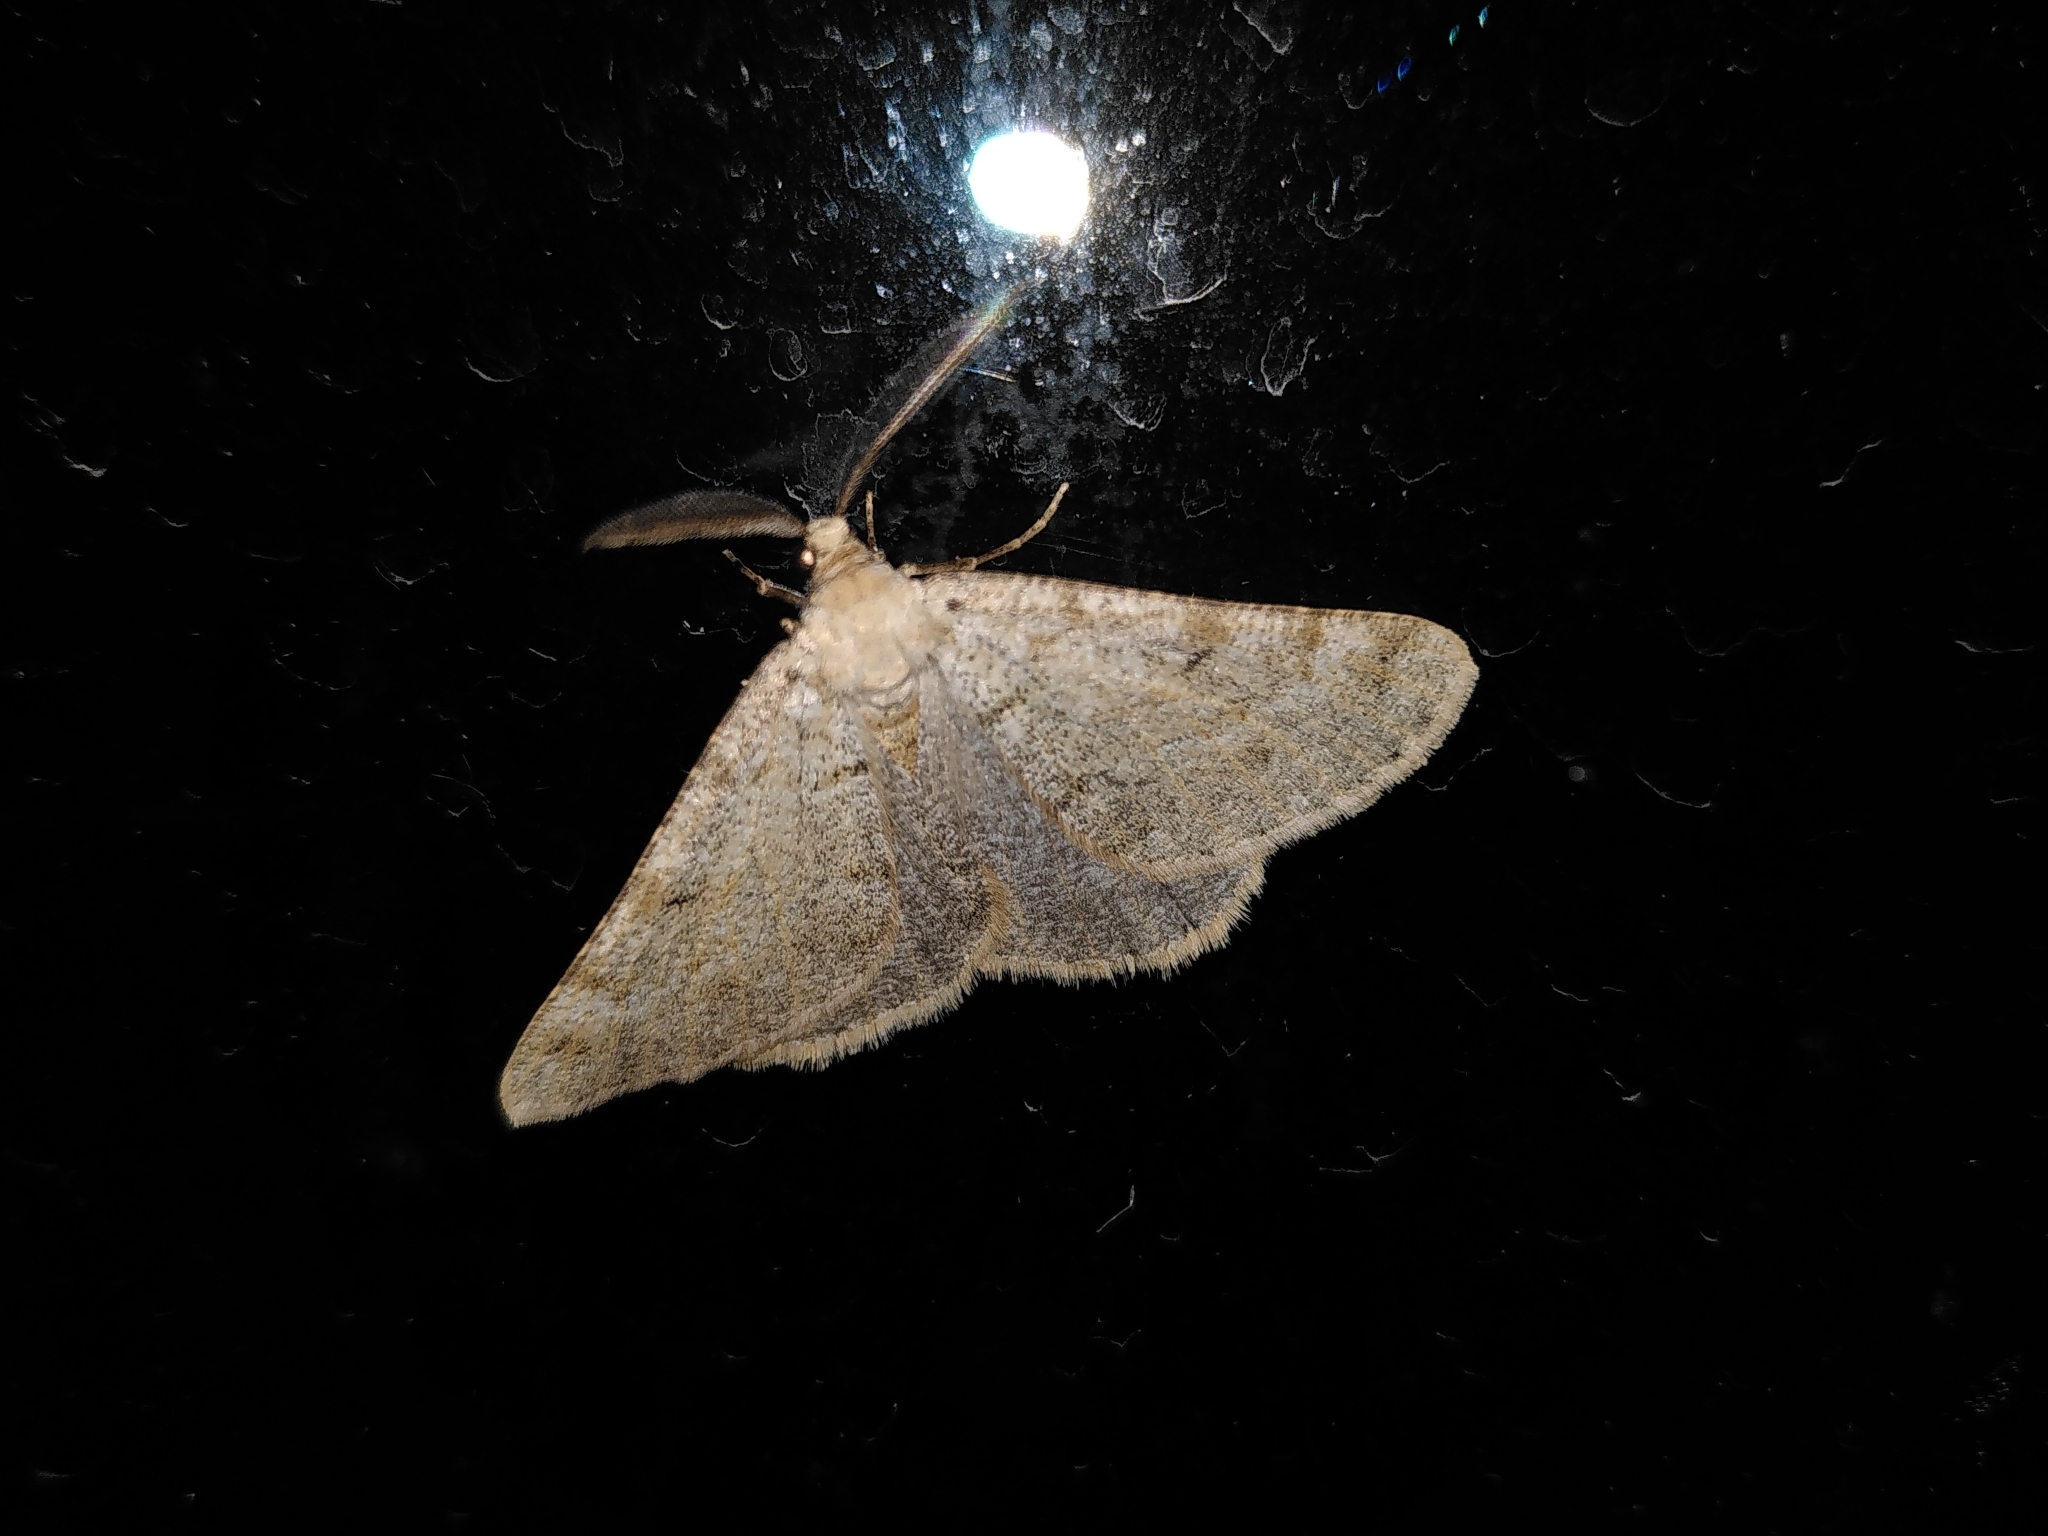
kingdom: Animalia
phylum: Arthropoda
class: Insecta
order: Lepidoptera
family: Geometridae
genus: Isturgia
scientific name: Isturgia miniosaria
